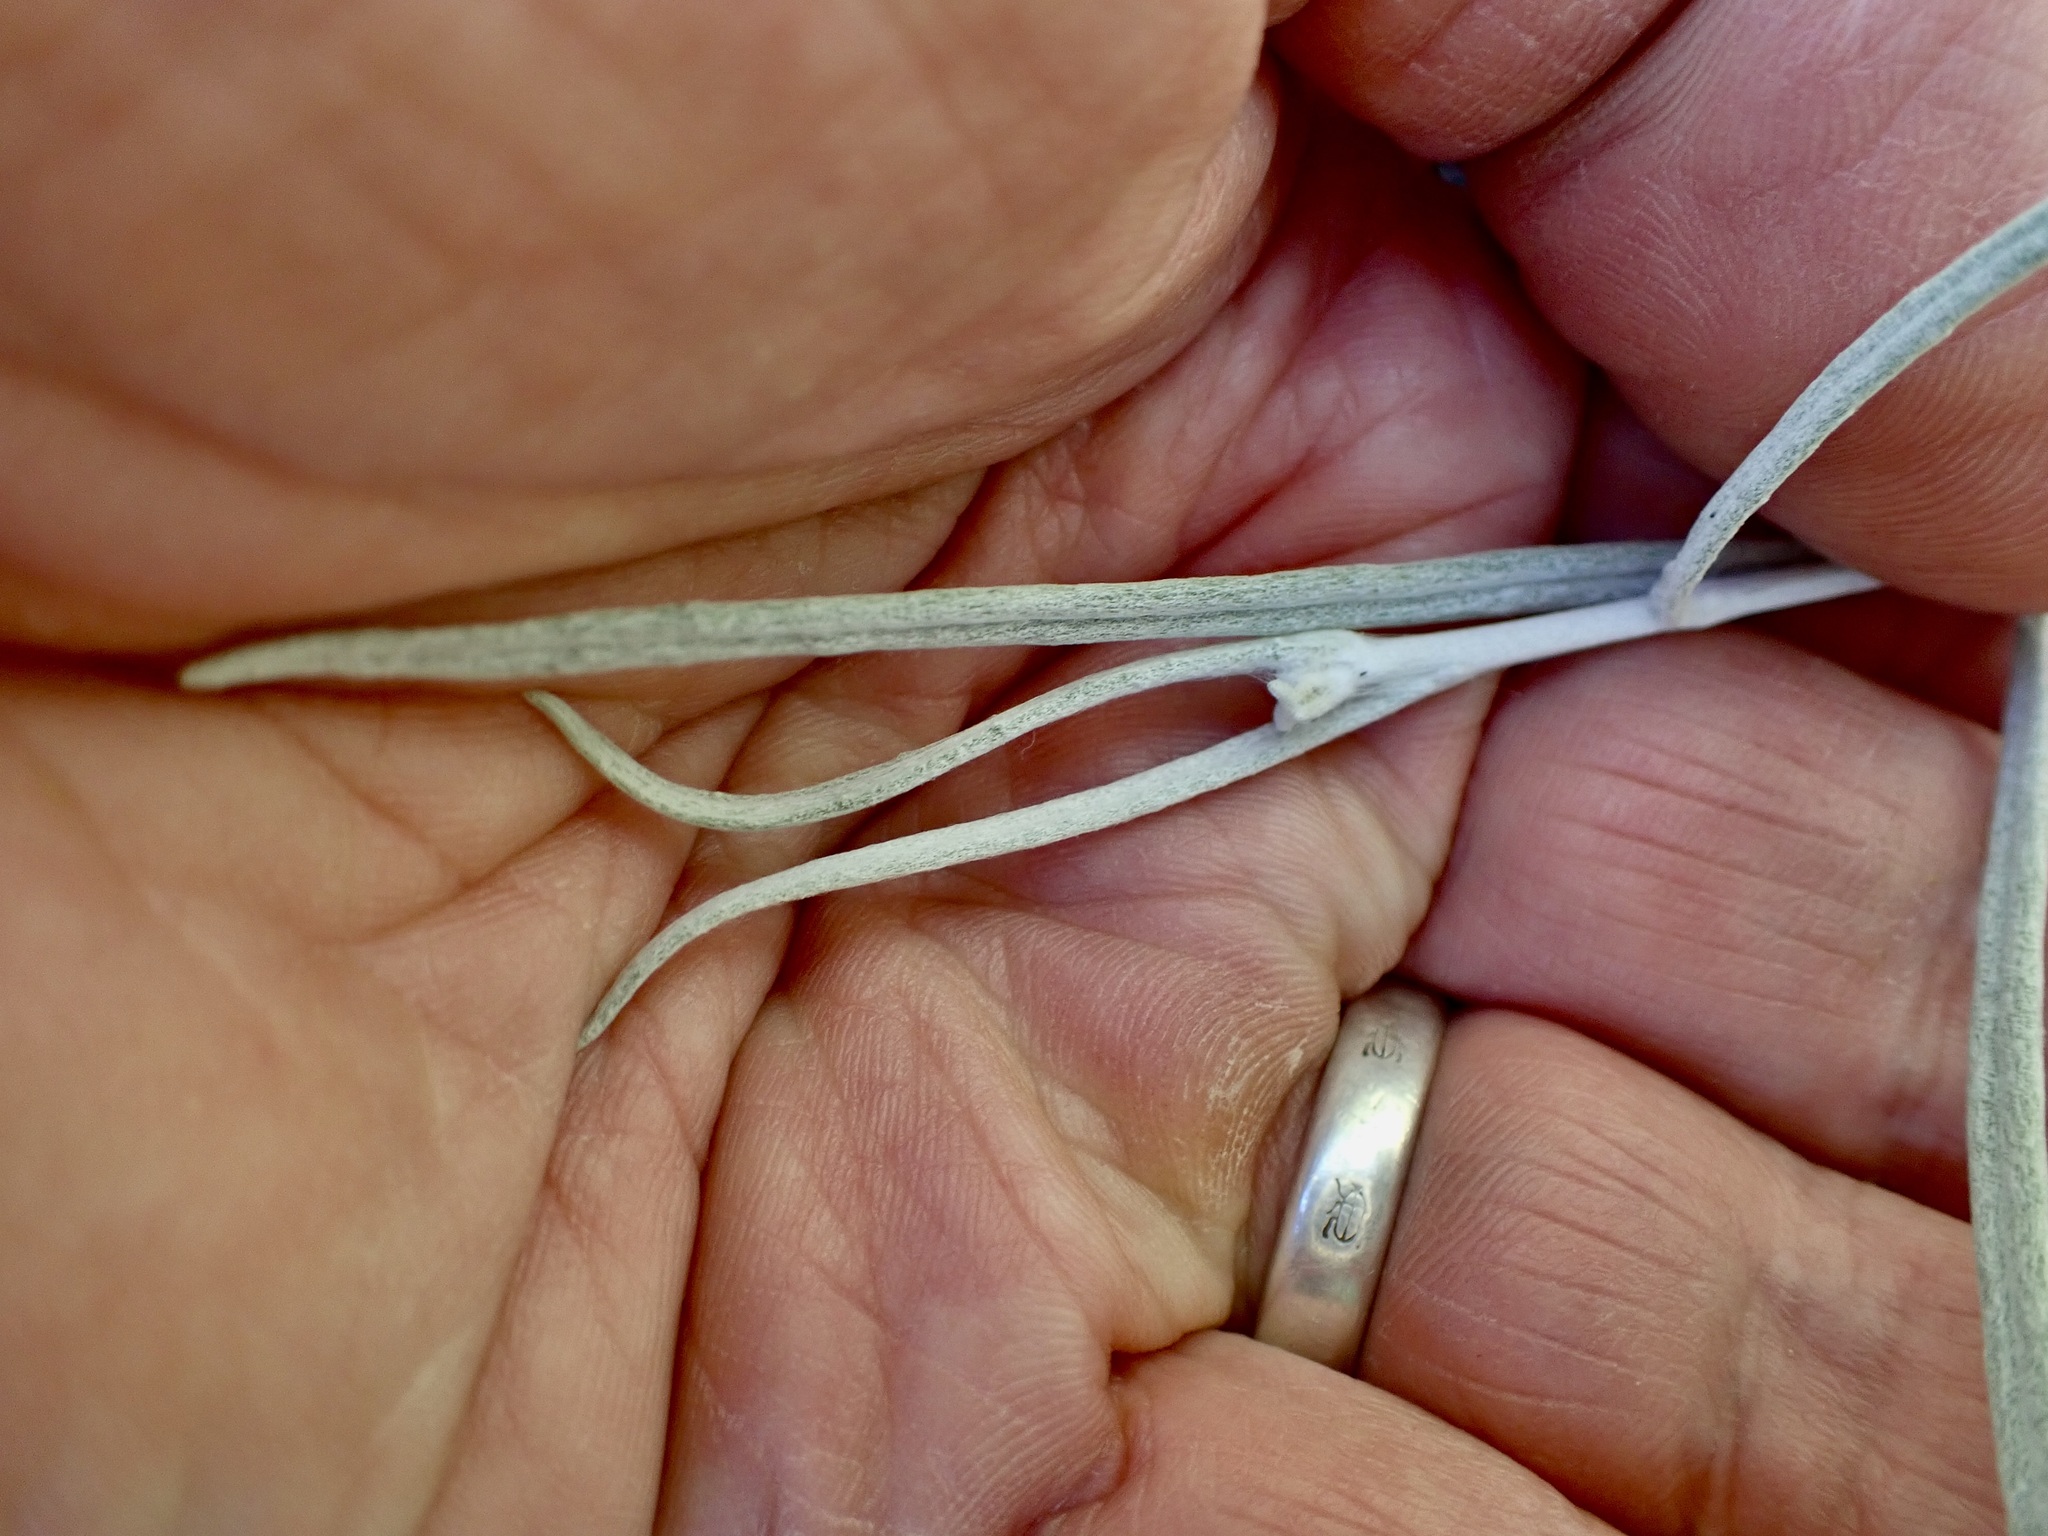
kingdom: Plantae
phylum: Tracheophyta
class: Magnoliopsida
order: Asterales
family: Asteraceae
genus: Senecio
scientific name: Senecio quadridentatus
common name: Cotton fireweed
